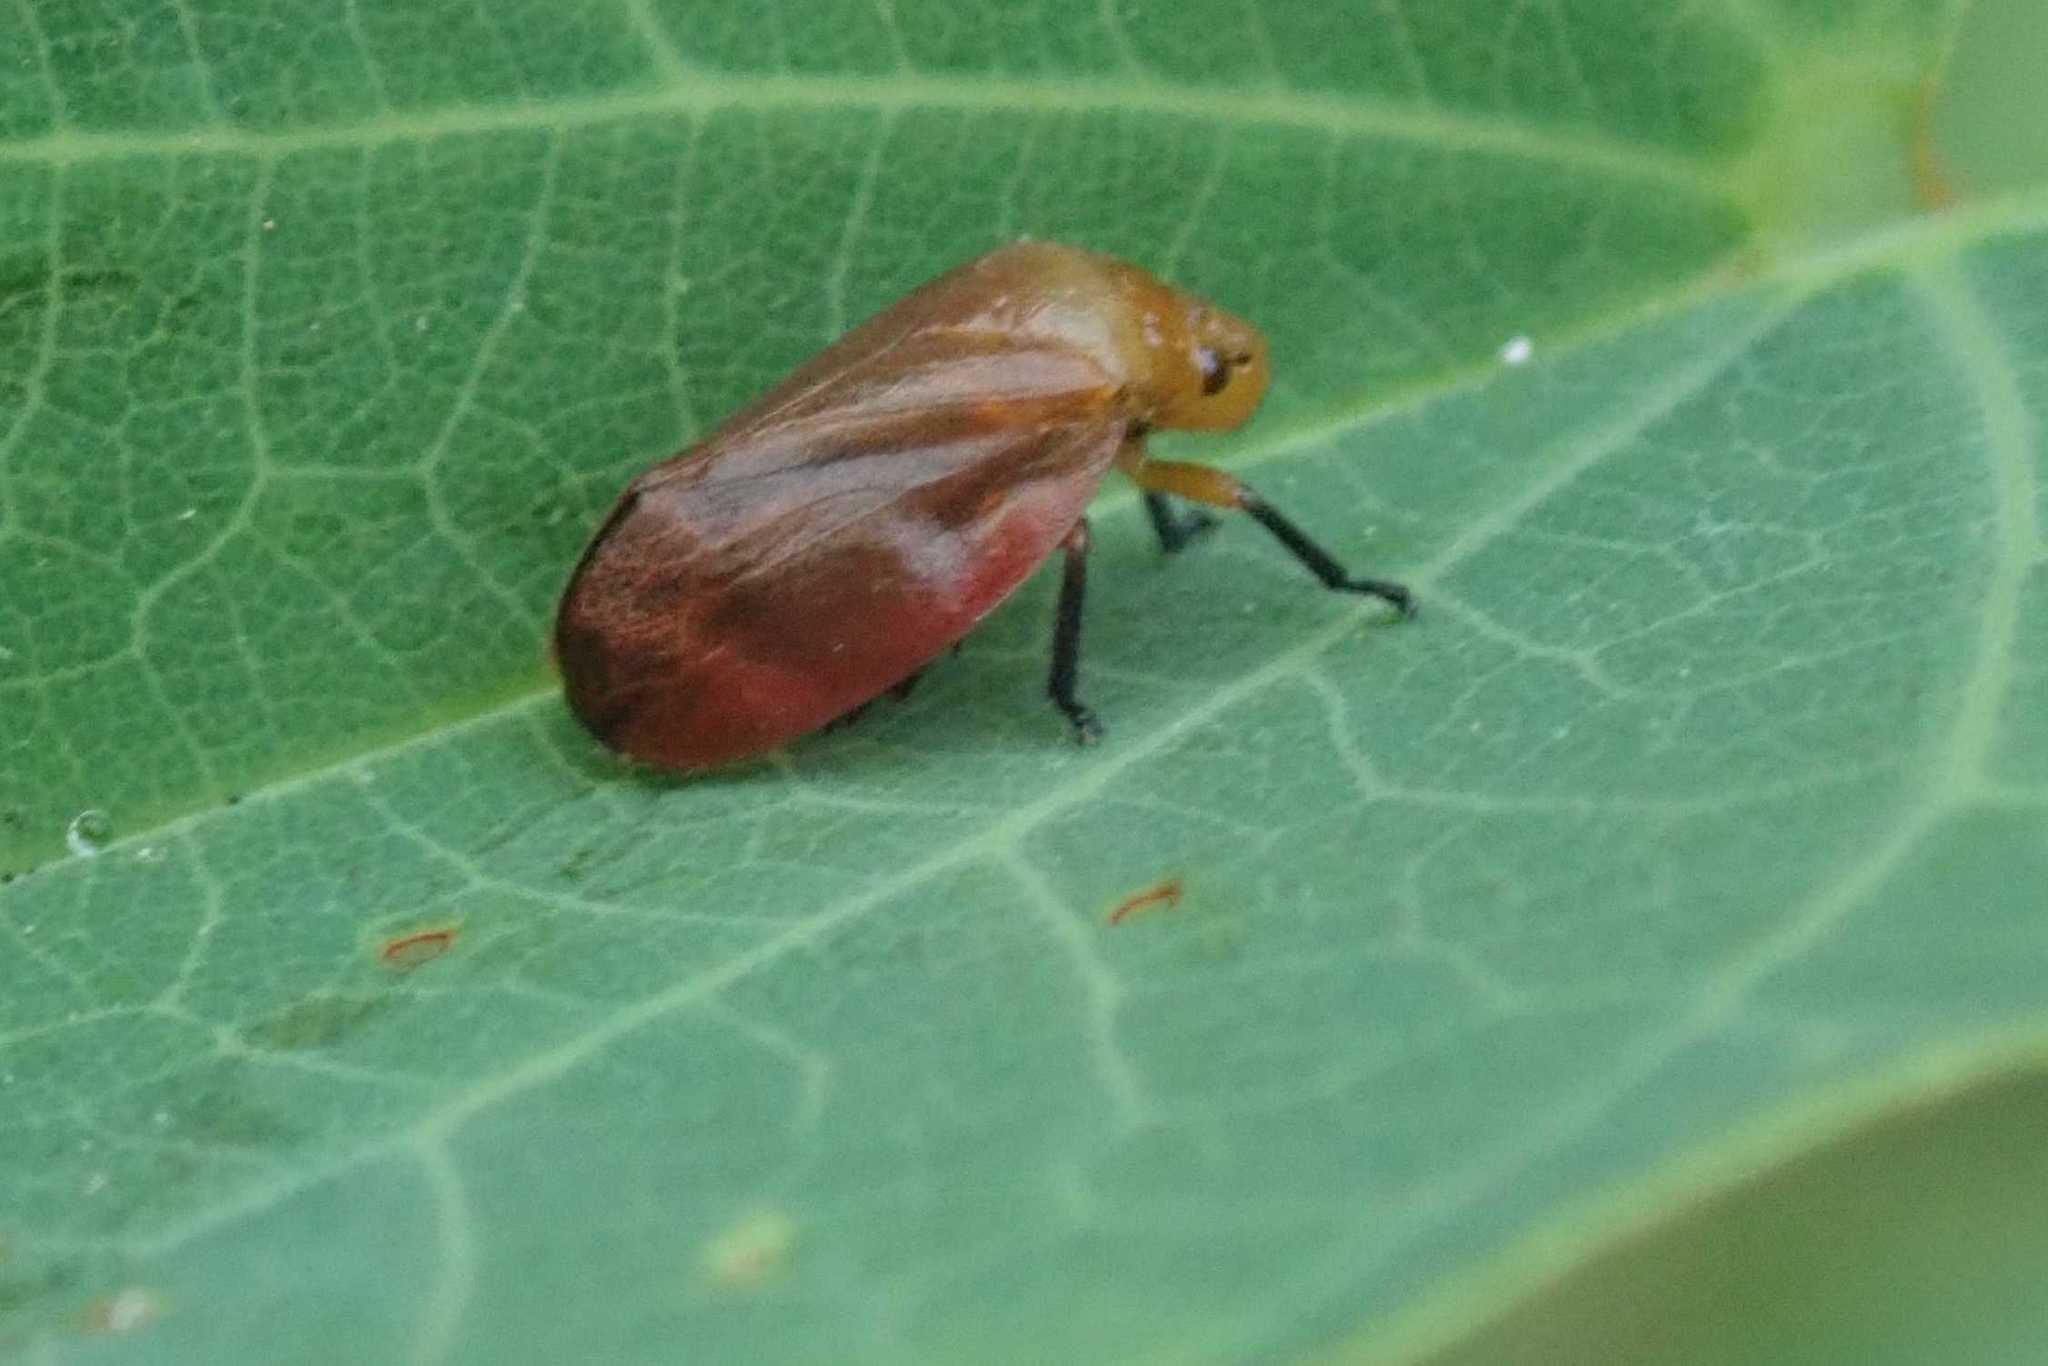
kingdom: Animalia
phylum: Arthropoda
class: Insecta
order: Hemiptera
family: Cercopidae
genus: Bandusia
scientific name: Bandusia rubicunda
